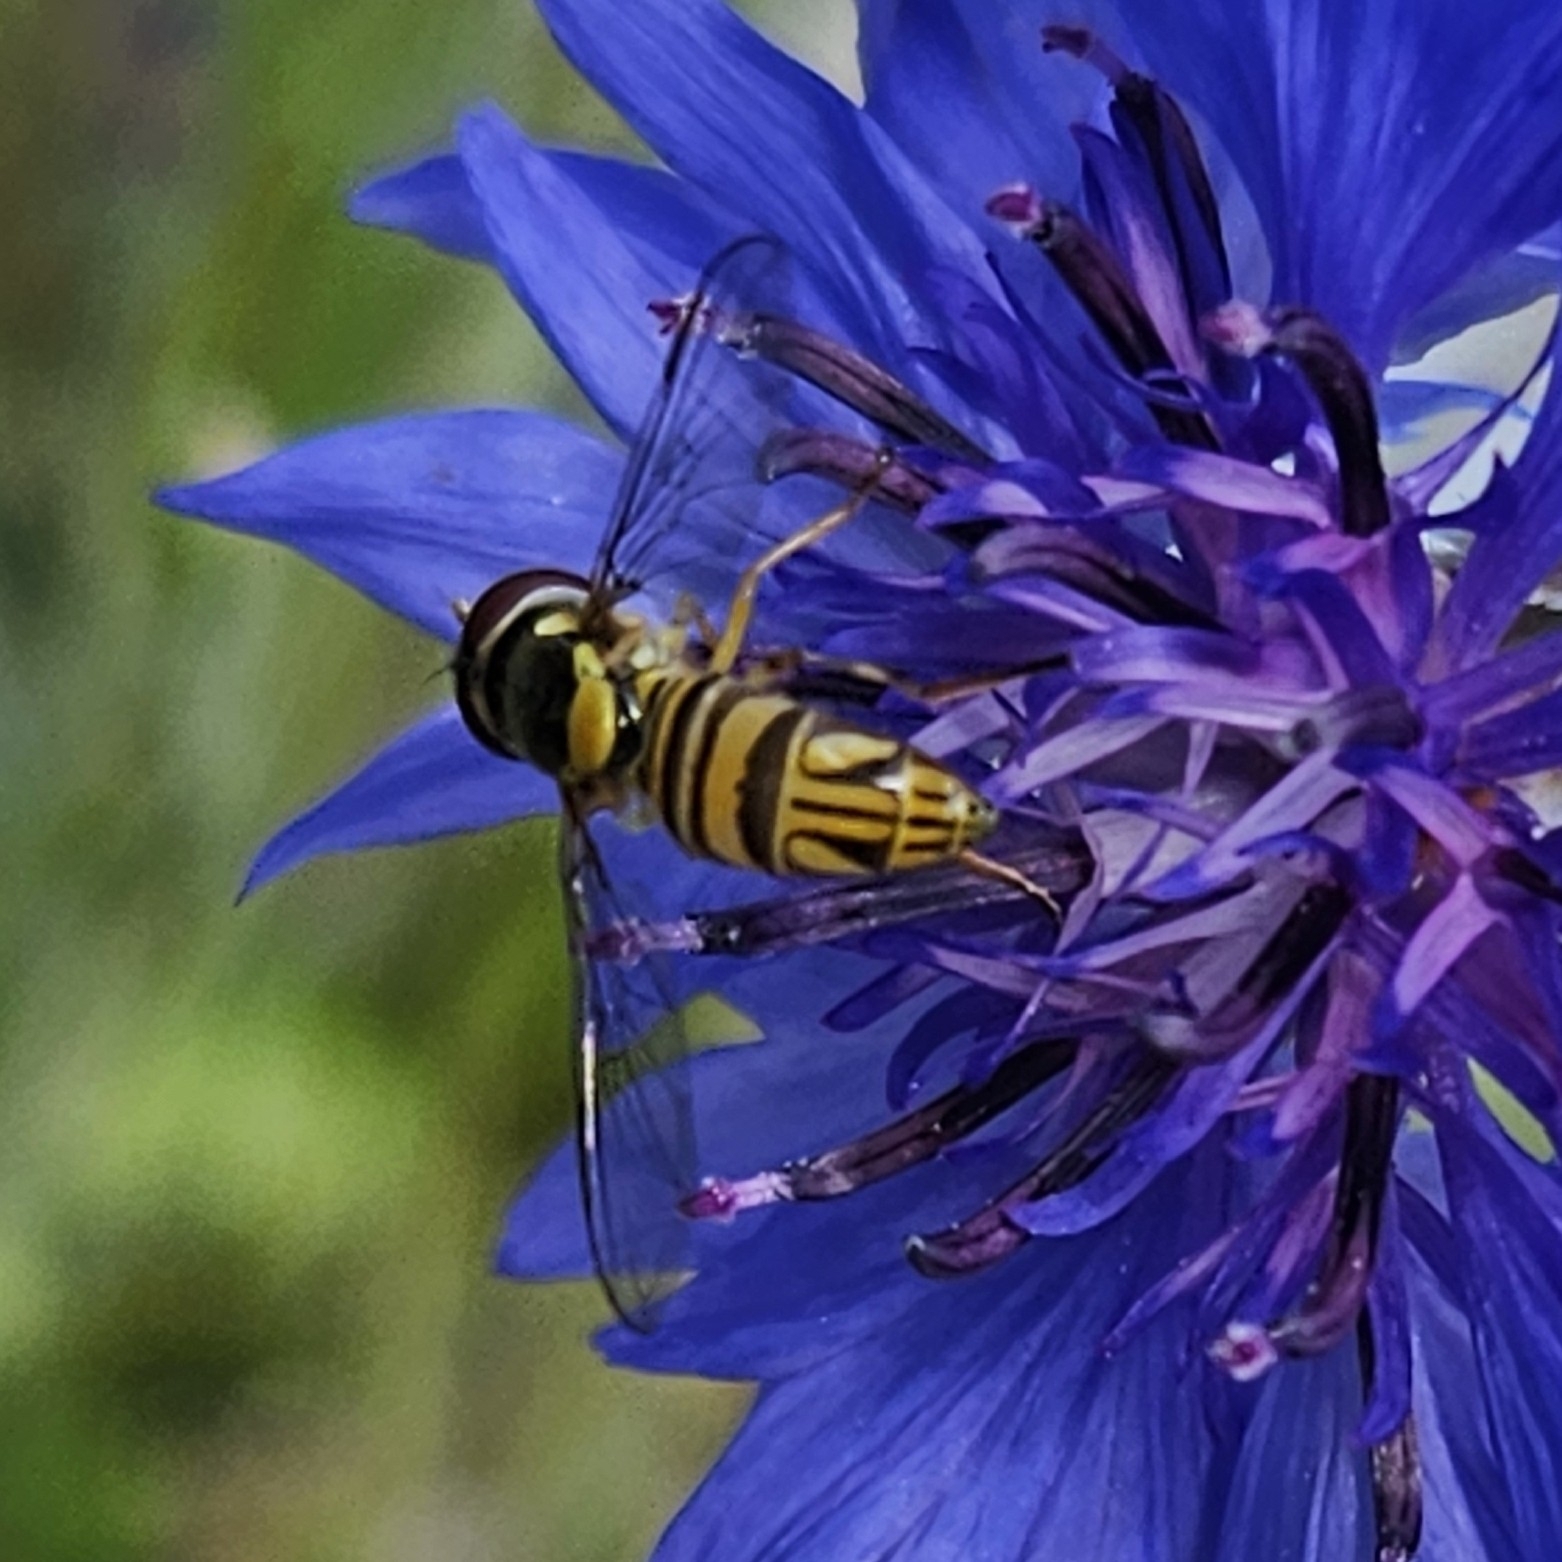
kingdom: Animalia
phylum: Arthropoda
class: Insecta
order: Diptera
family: Syrphidae
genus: Allograpta
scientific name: Allograpta obliqua
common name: Common oblique syrphid
